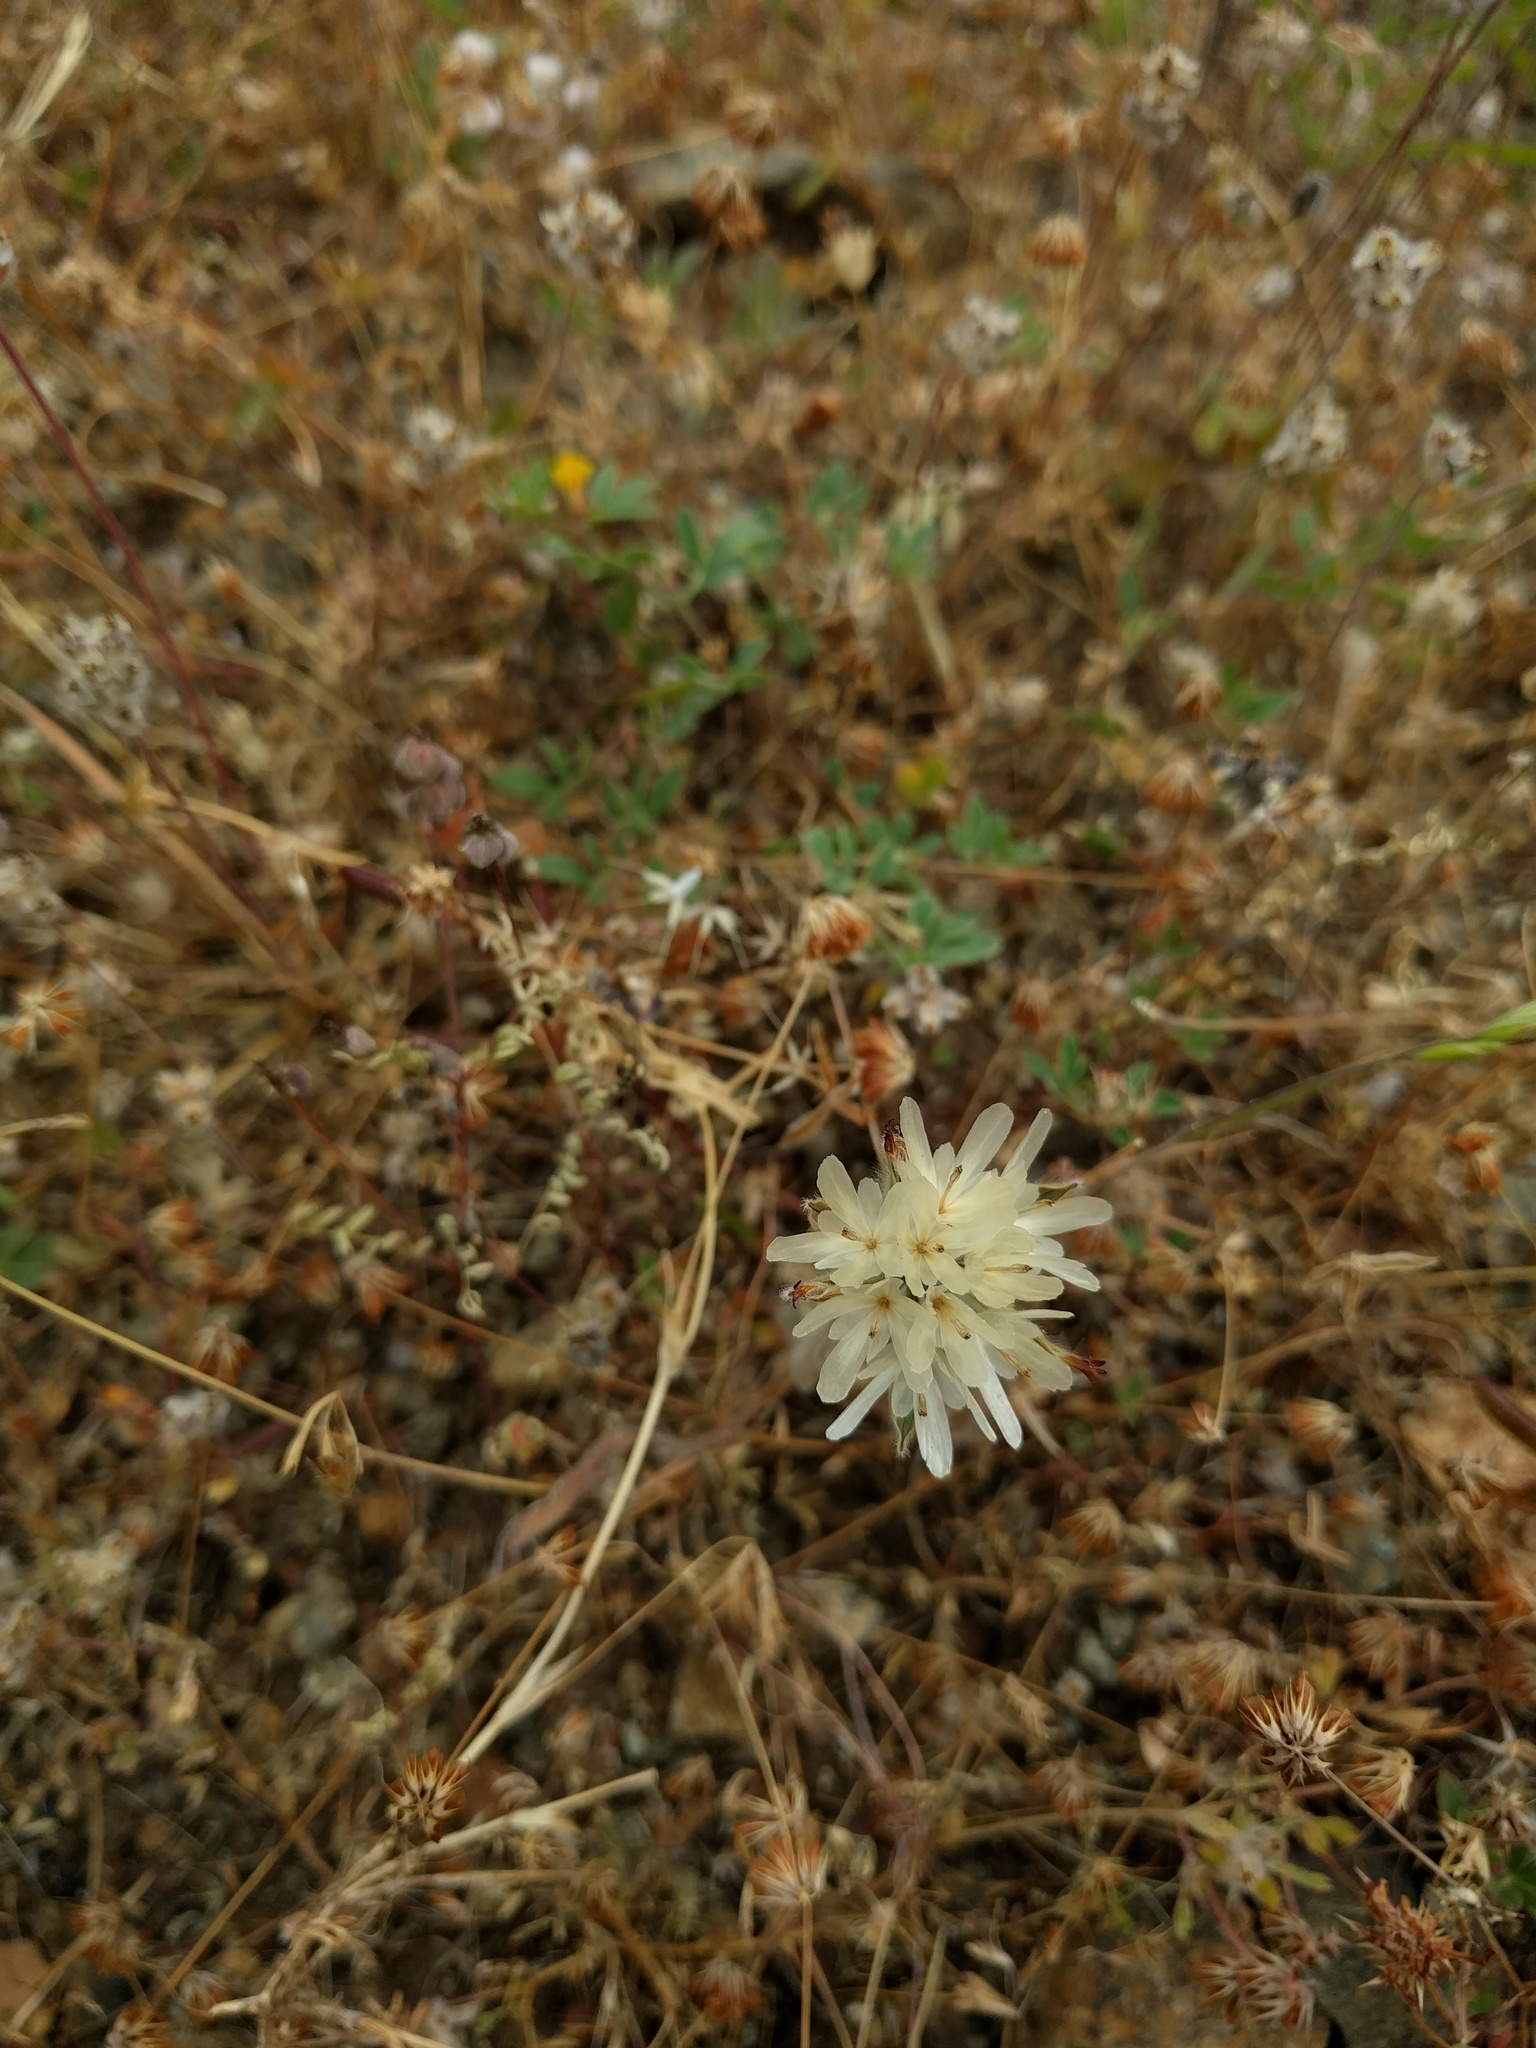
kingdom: Plantae
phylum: Tracheophyta
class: Magnoliopsida
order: Asterales
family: Asteraceae
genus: Achyrachaena
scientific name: Achyrachaena mollis
